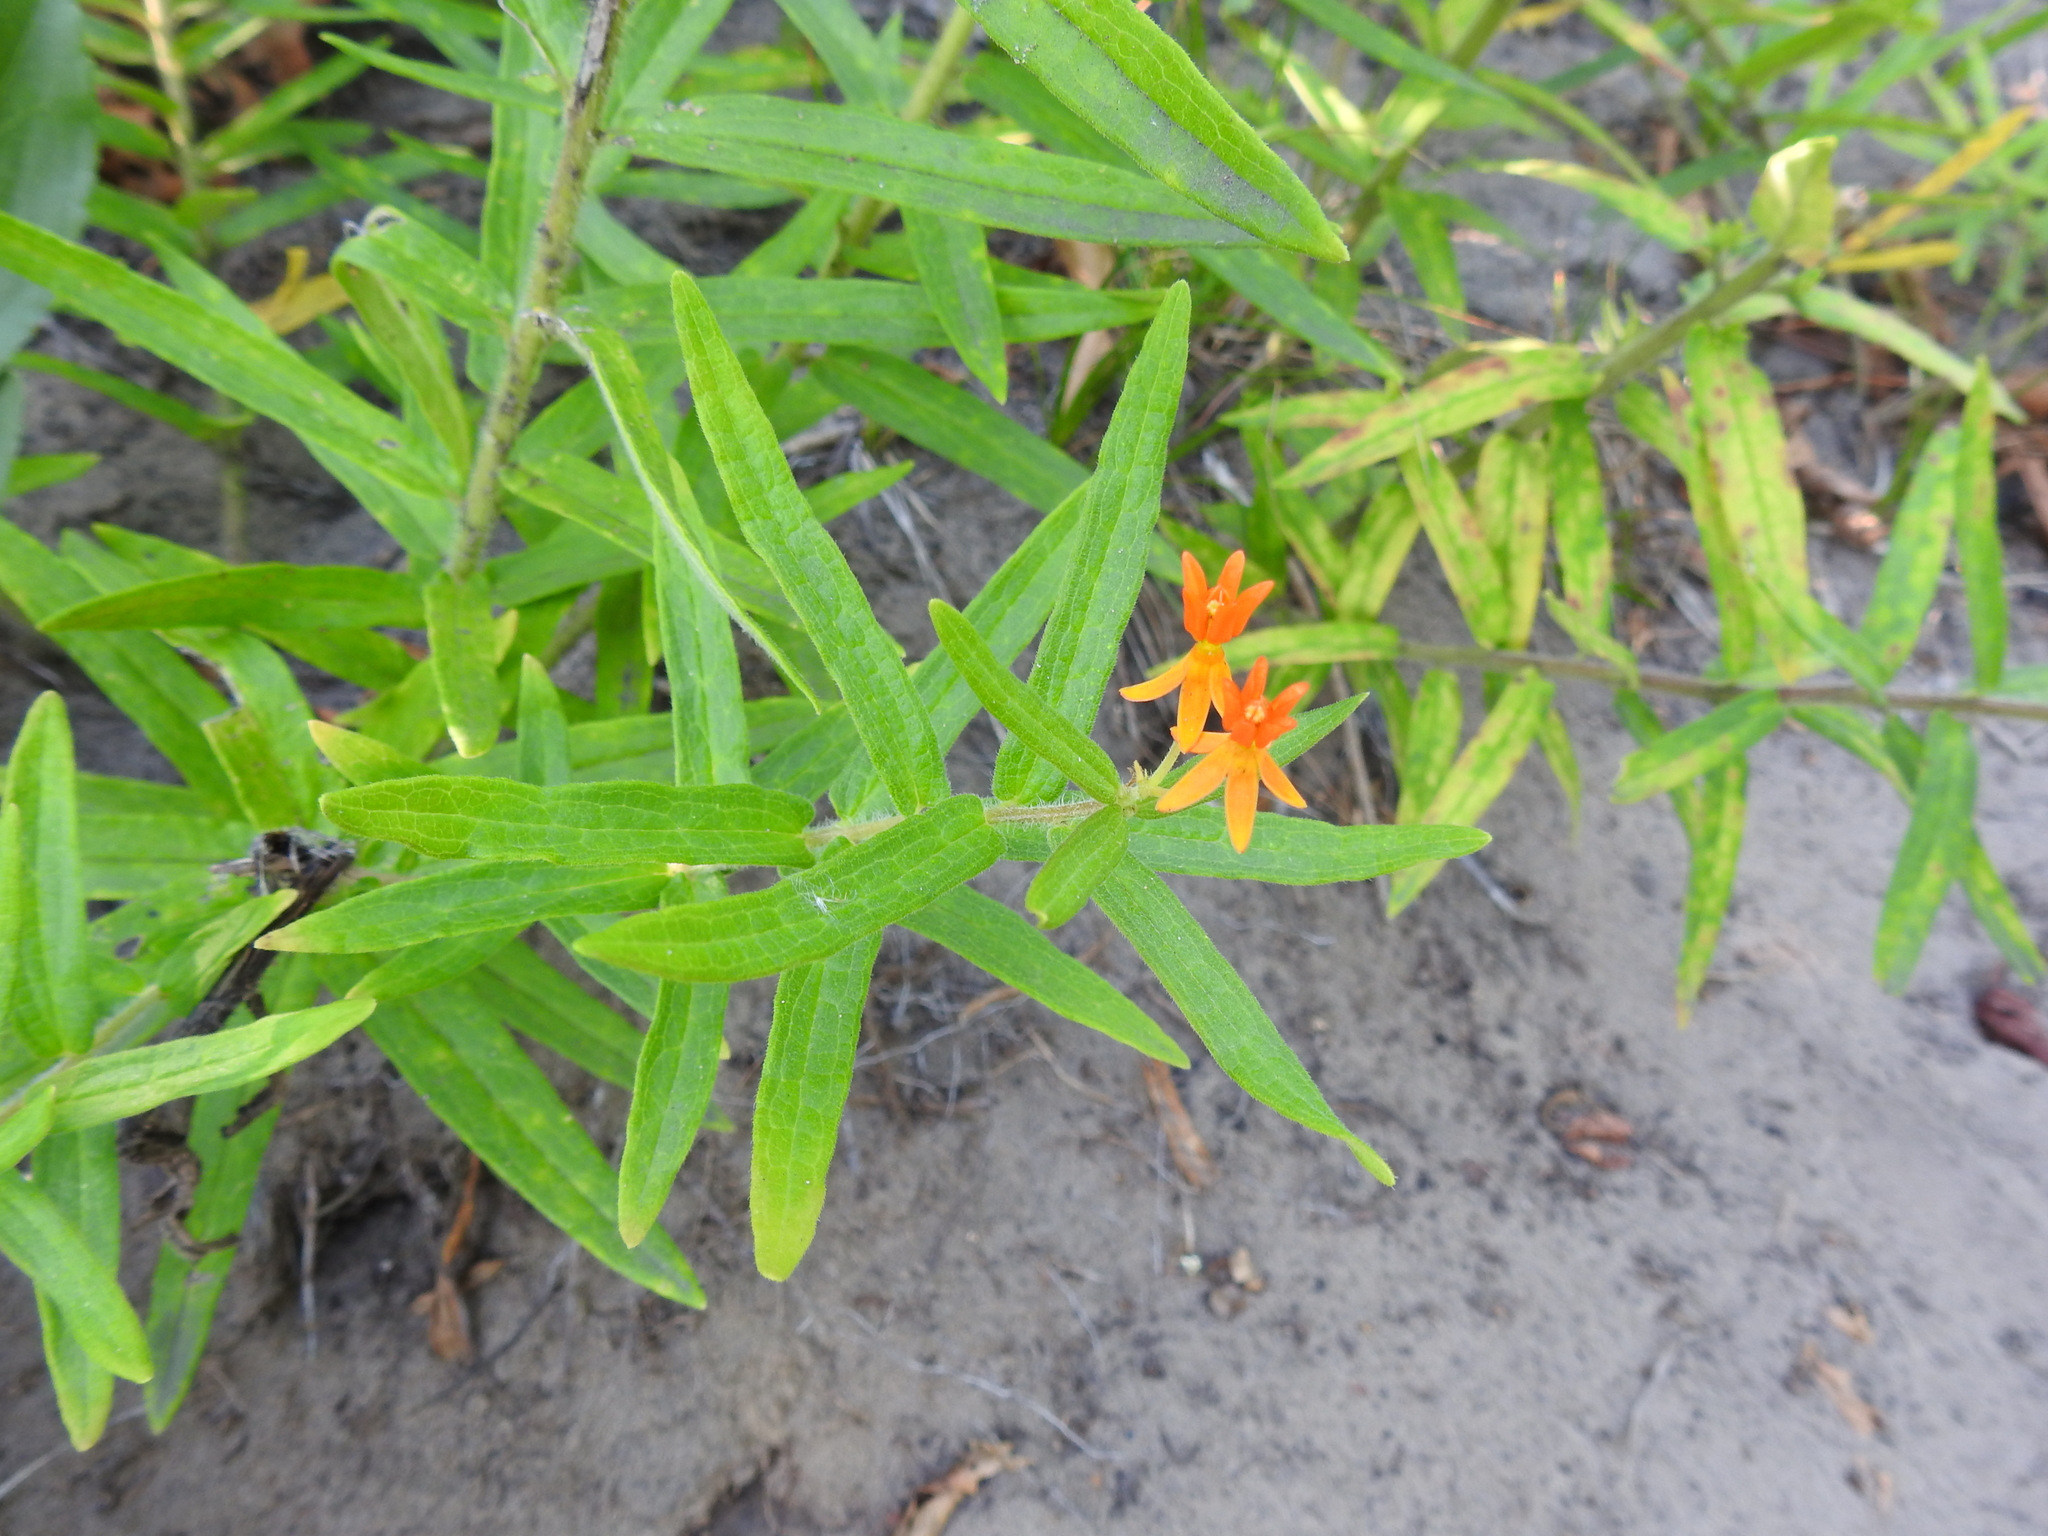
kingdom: Plantae
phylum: Tracheophyta
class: Magnoliopsida
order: Gentianales
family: Apocynaceae
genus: Asclepias
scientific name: Asclepias tuberosa
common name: Butterfly milkweed
